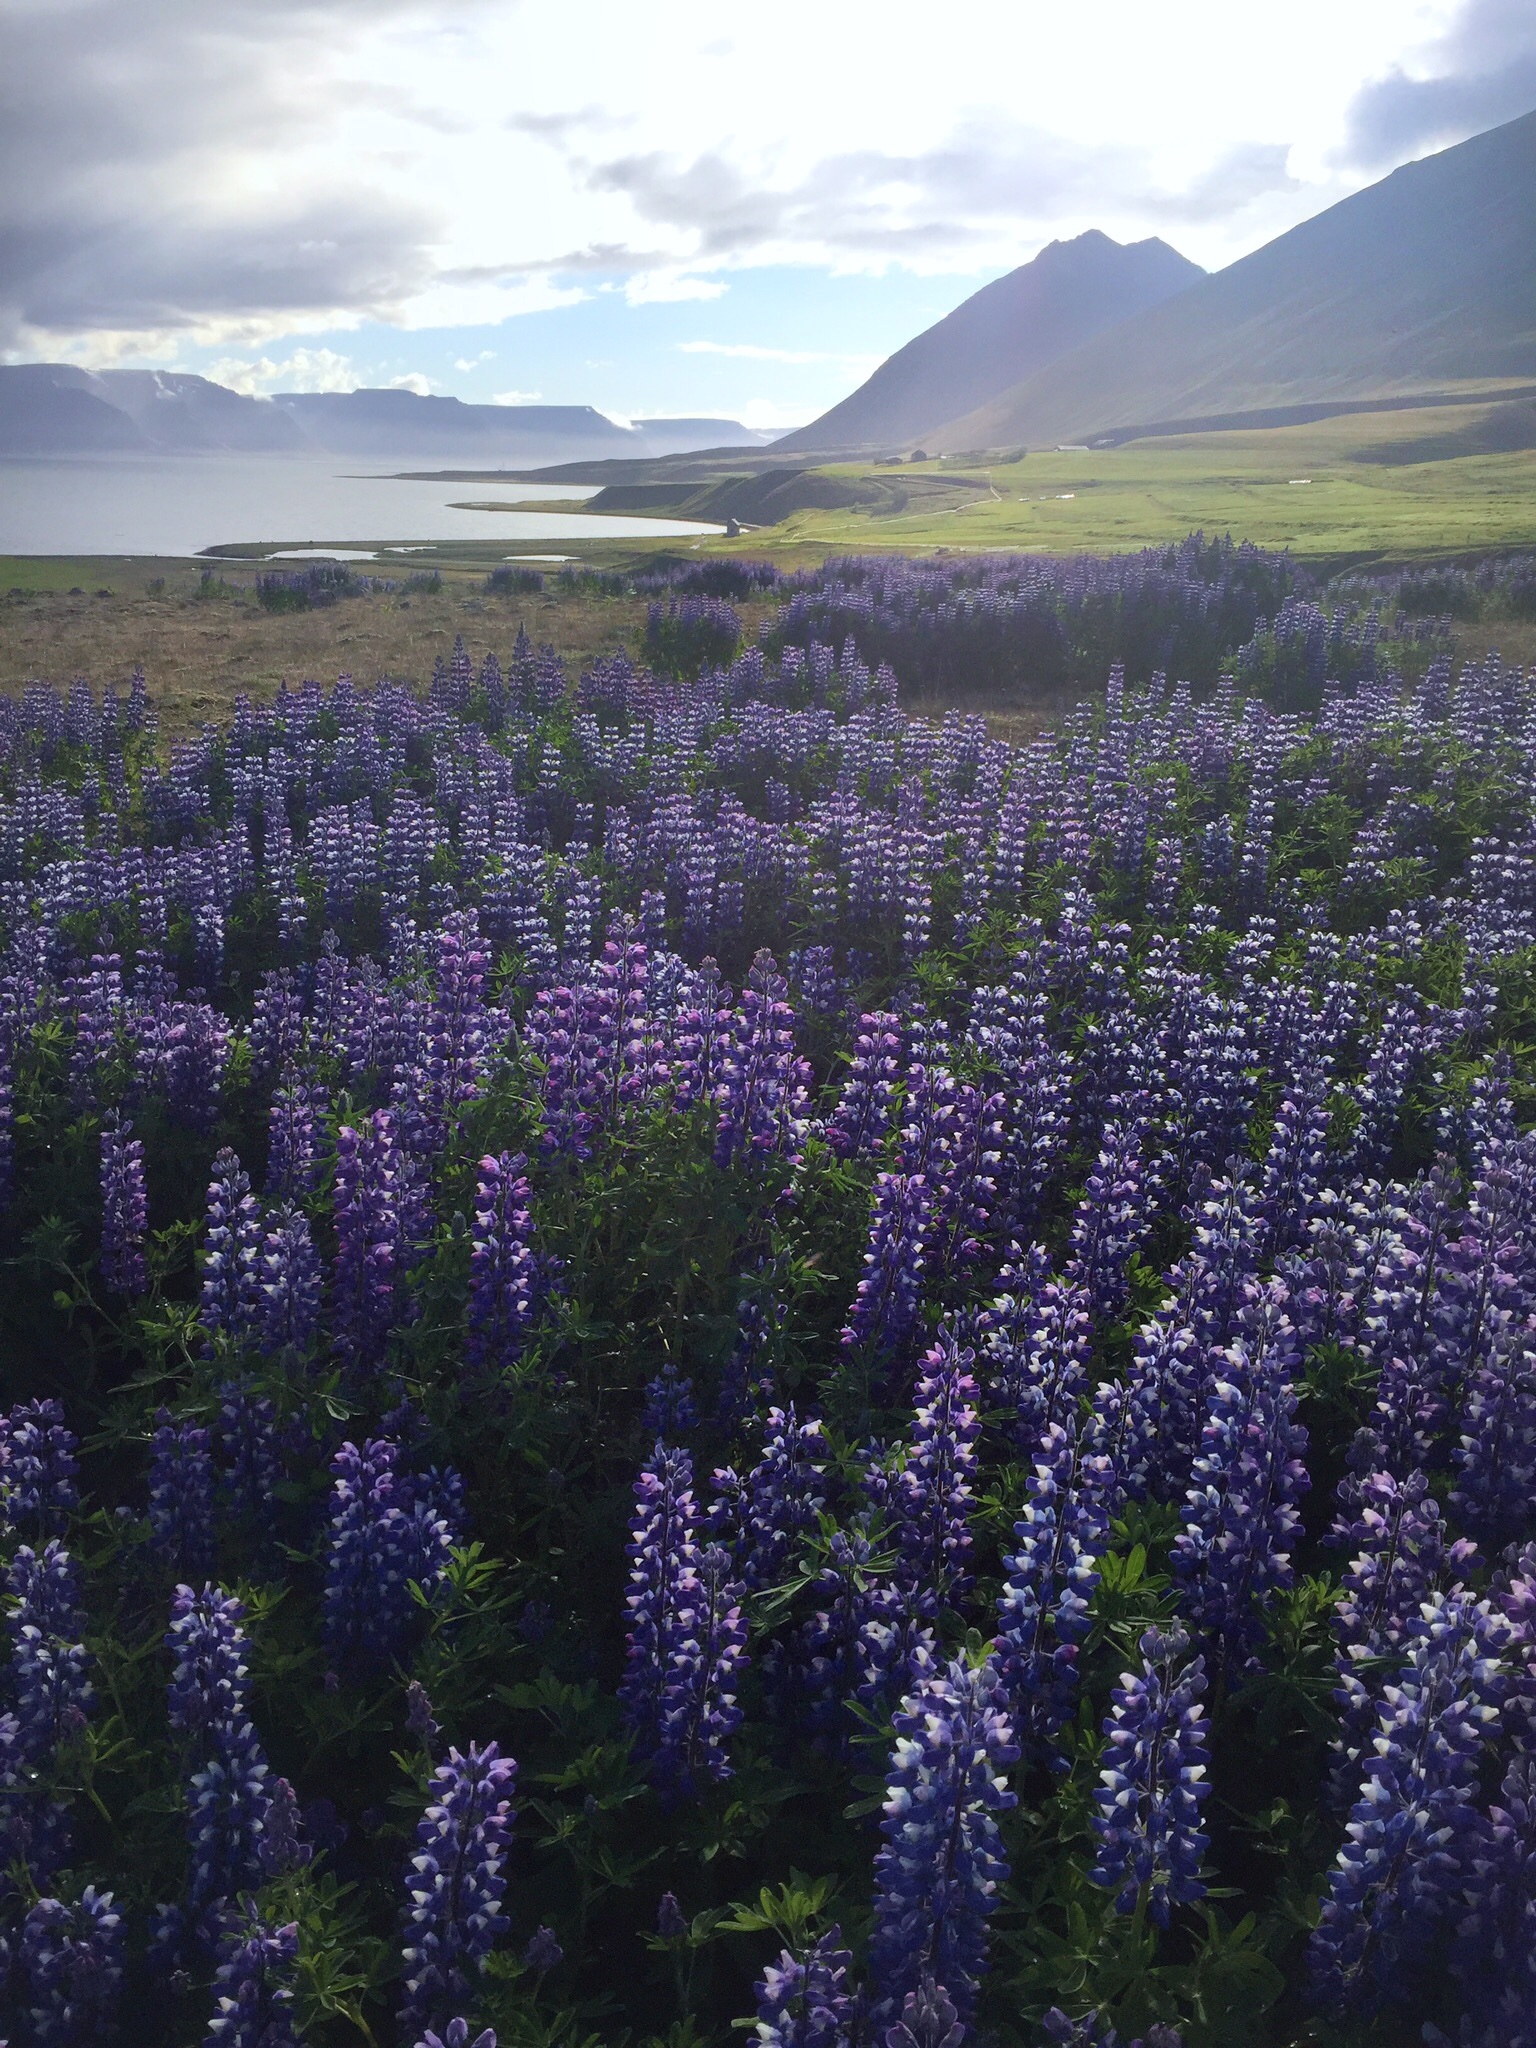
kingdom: Plantae
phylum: Tracheophyta
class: Magnoliopsida
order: Fabales
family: Fabaceae
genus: Lupinus
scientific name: Lupinus nootkatensis
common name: Nootka lupine
